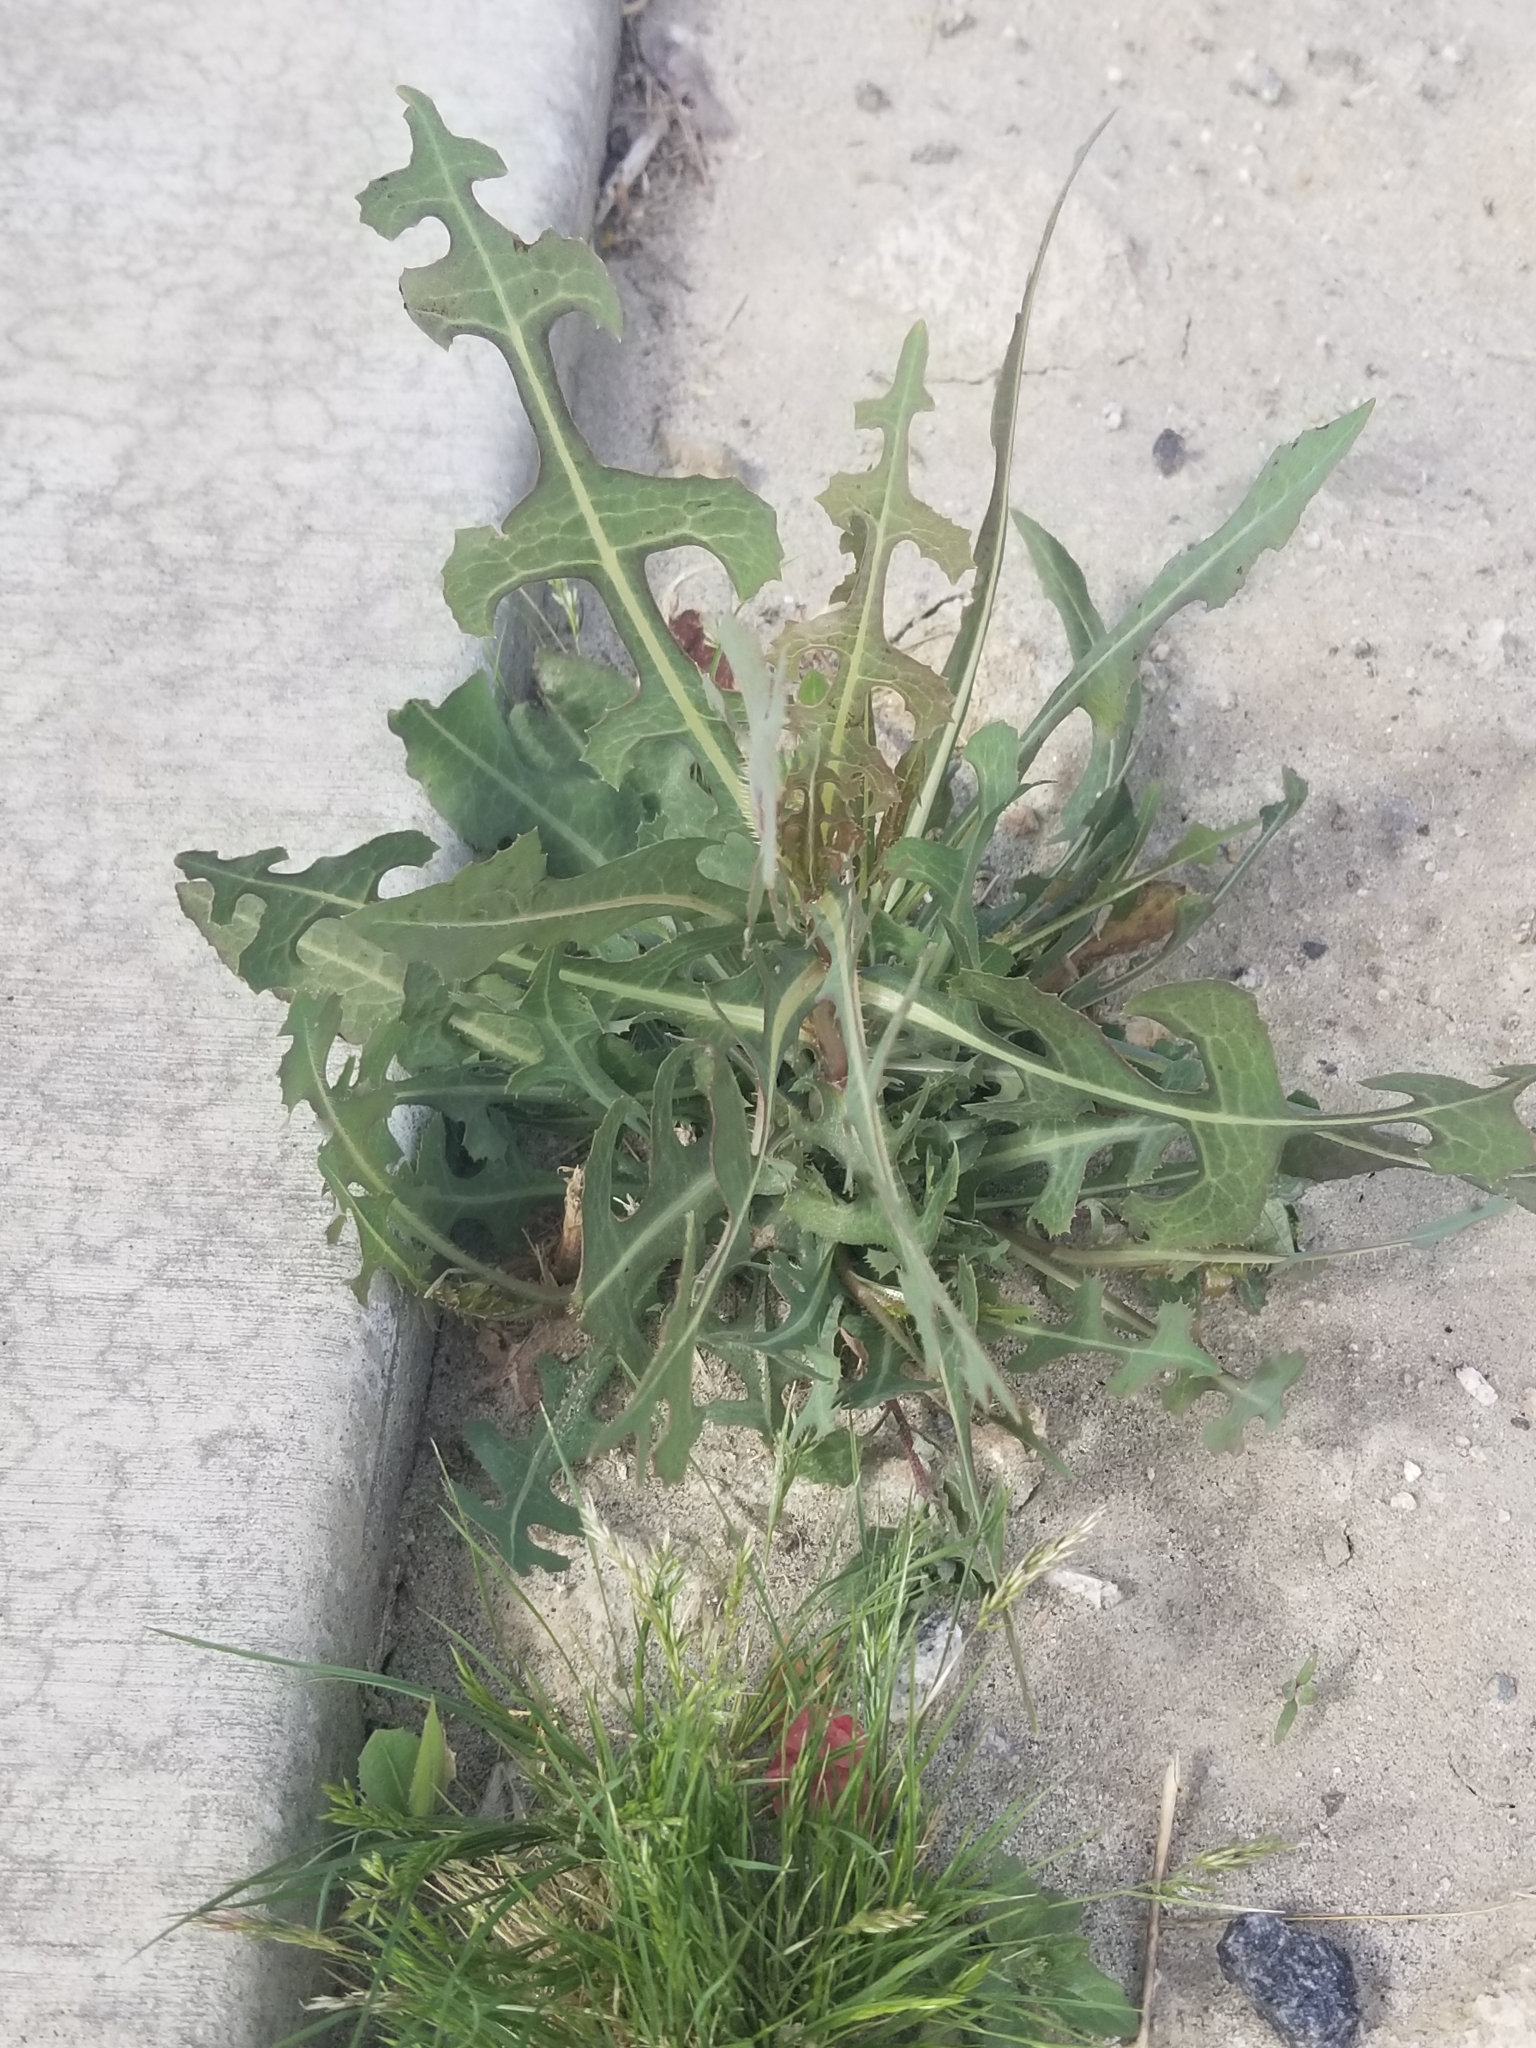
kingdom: Plantae
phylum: Tracheophyta
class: Magnoliopsida
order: Asterales
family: Asteraceae
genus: Lactuca
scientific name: Lactuca serriola
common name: Prickly lettuce
